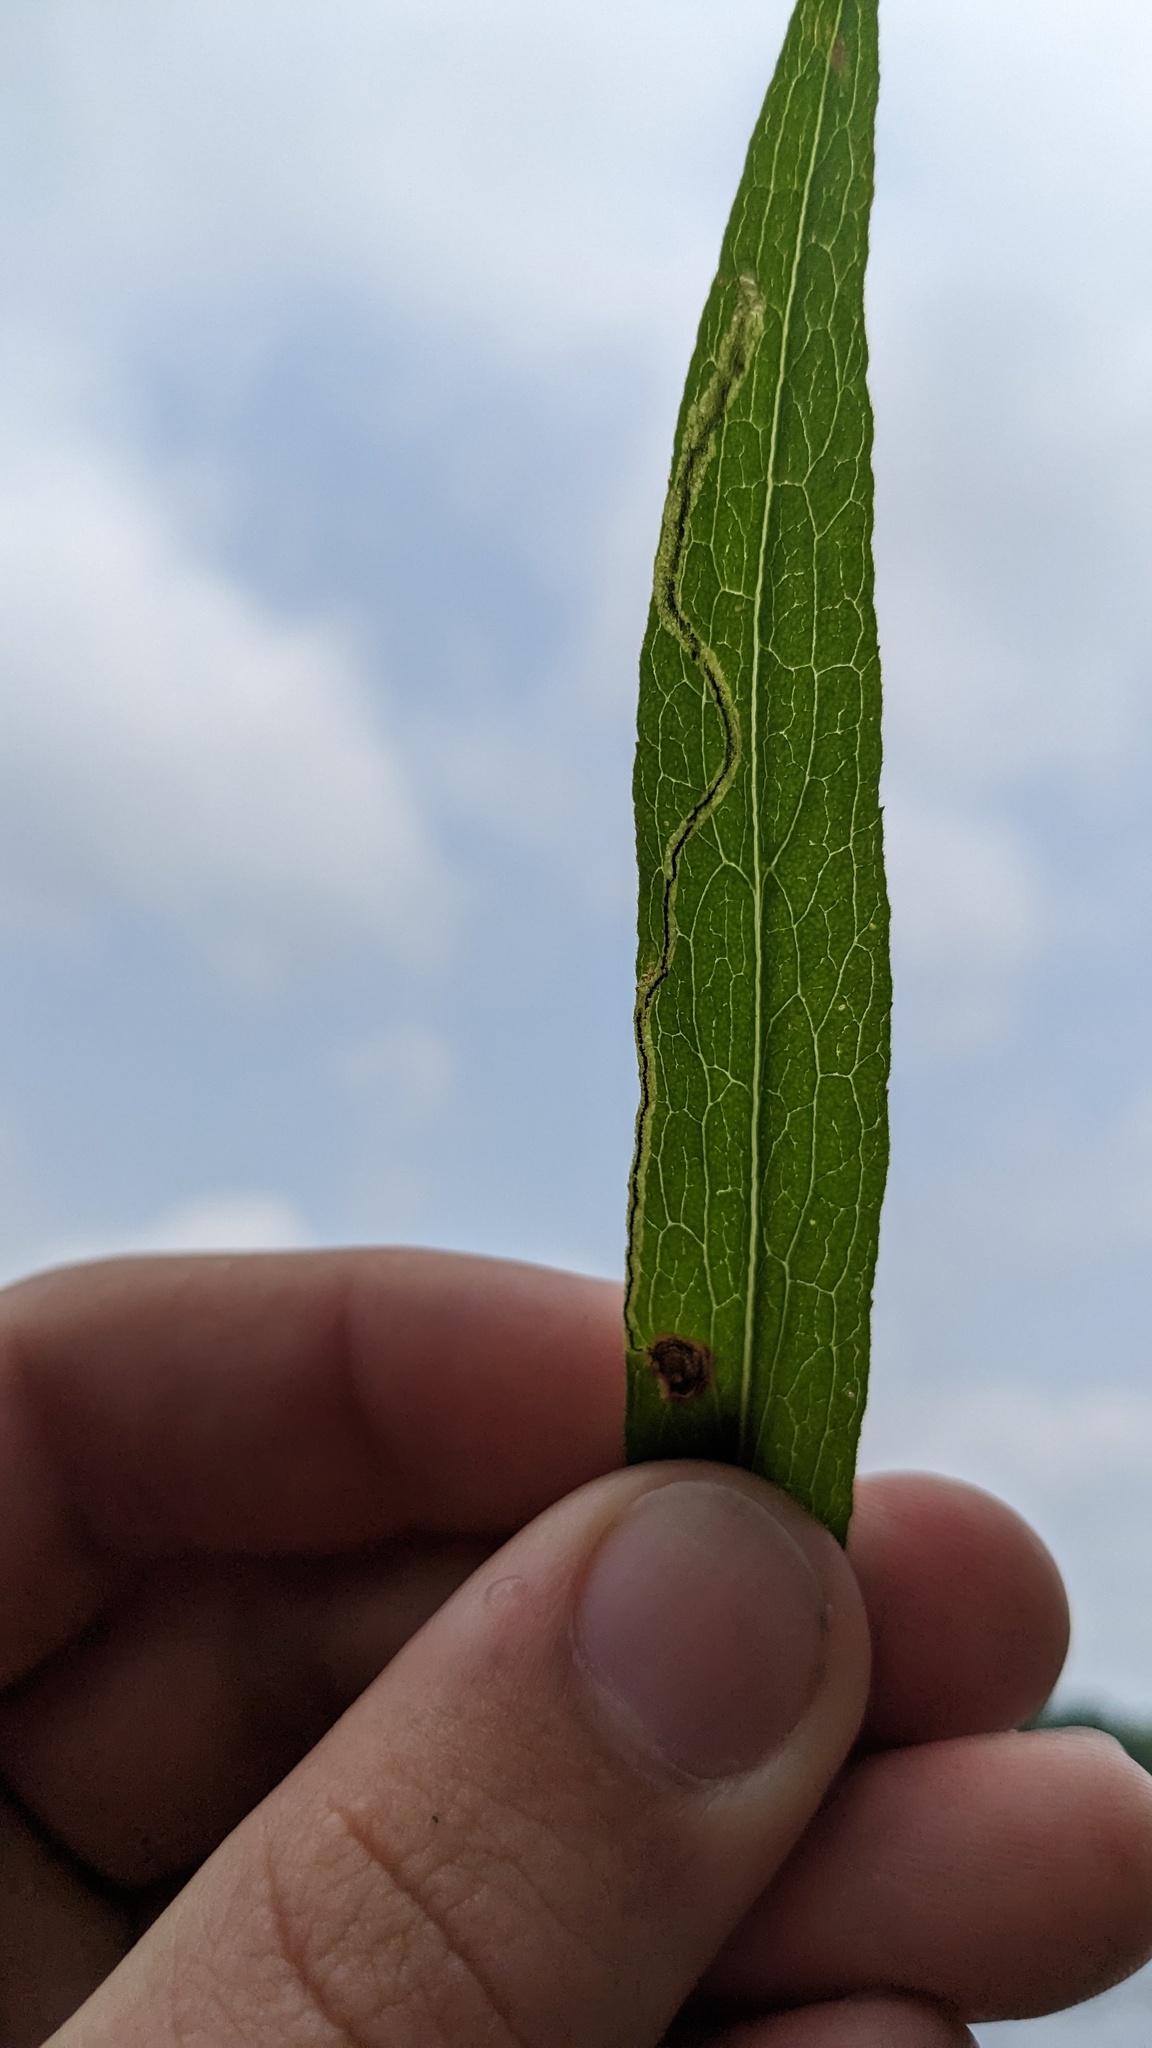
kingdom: Animalia
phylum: Arthropoda
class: Insecta
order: Diptera
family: Agromyzidae
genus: Liriomyza
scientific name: Liriomyza eupatorii
